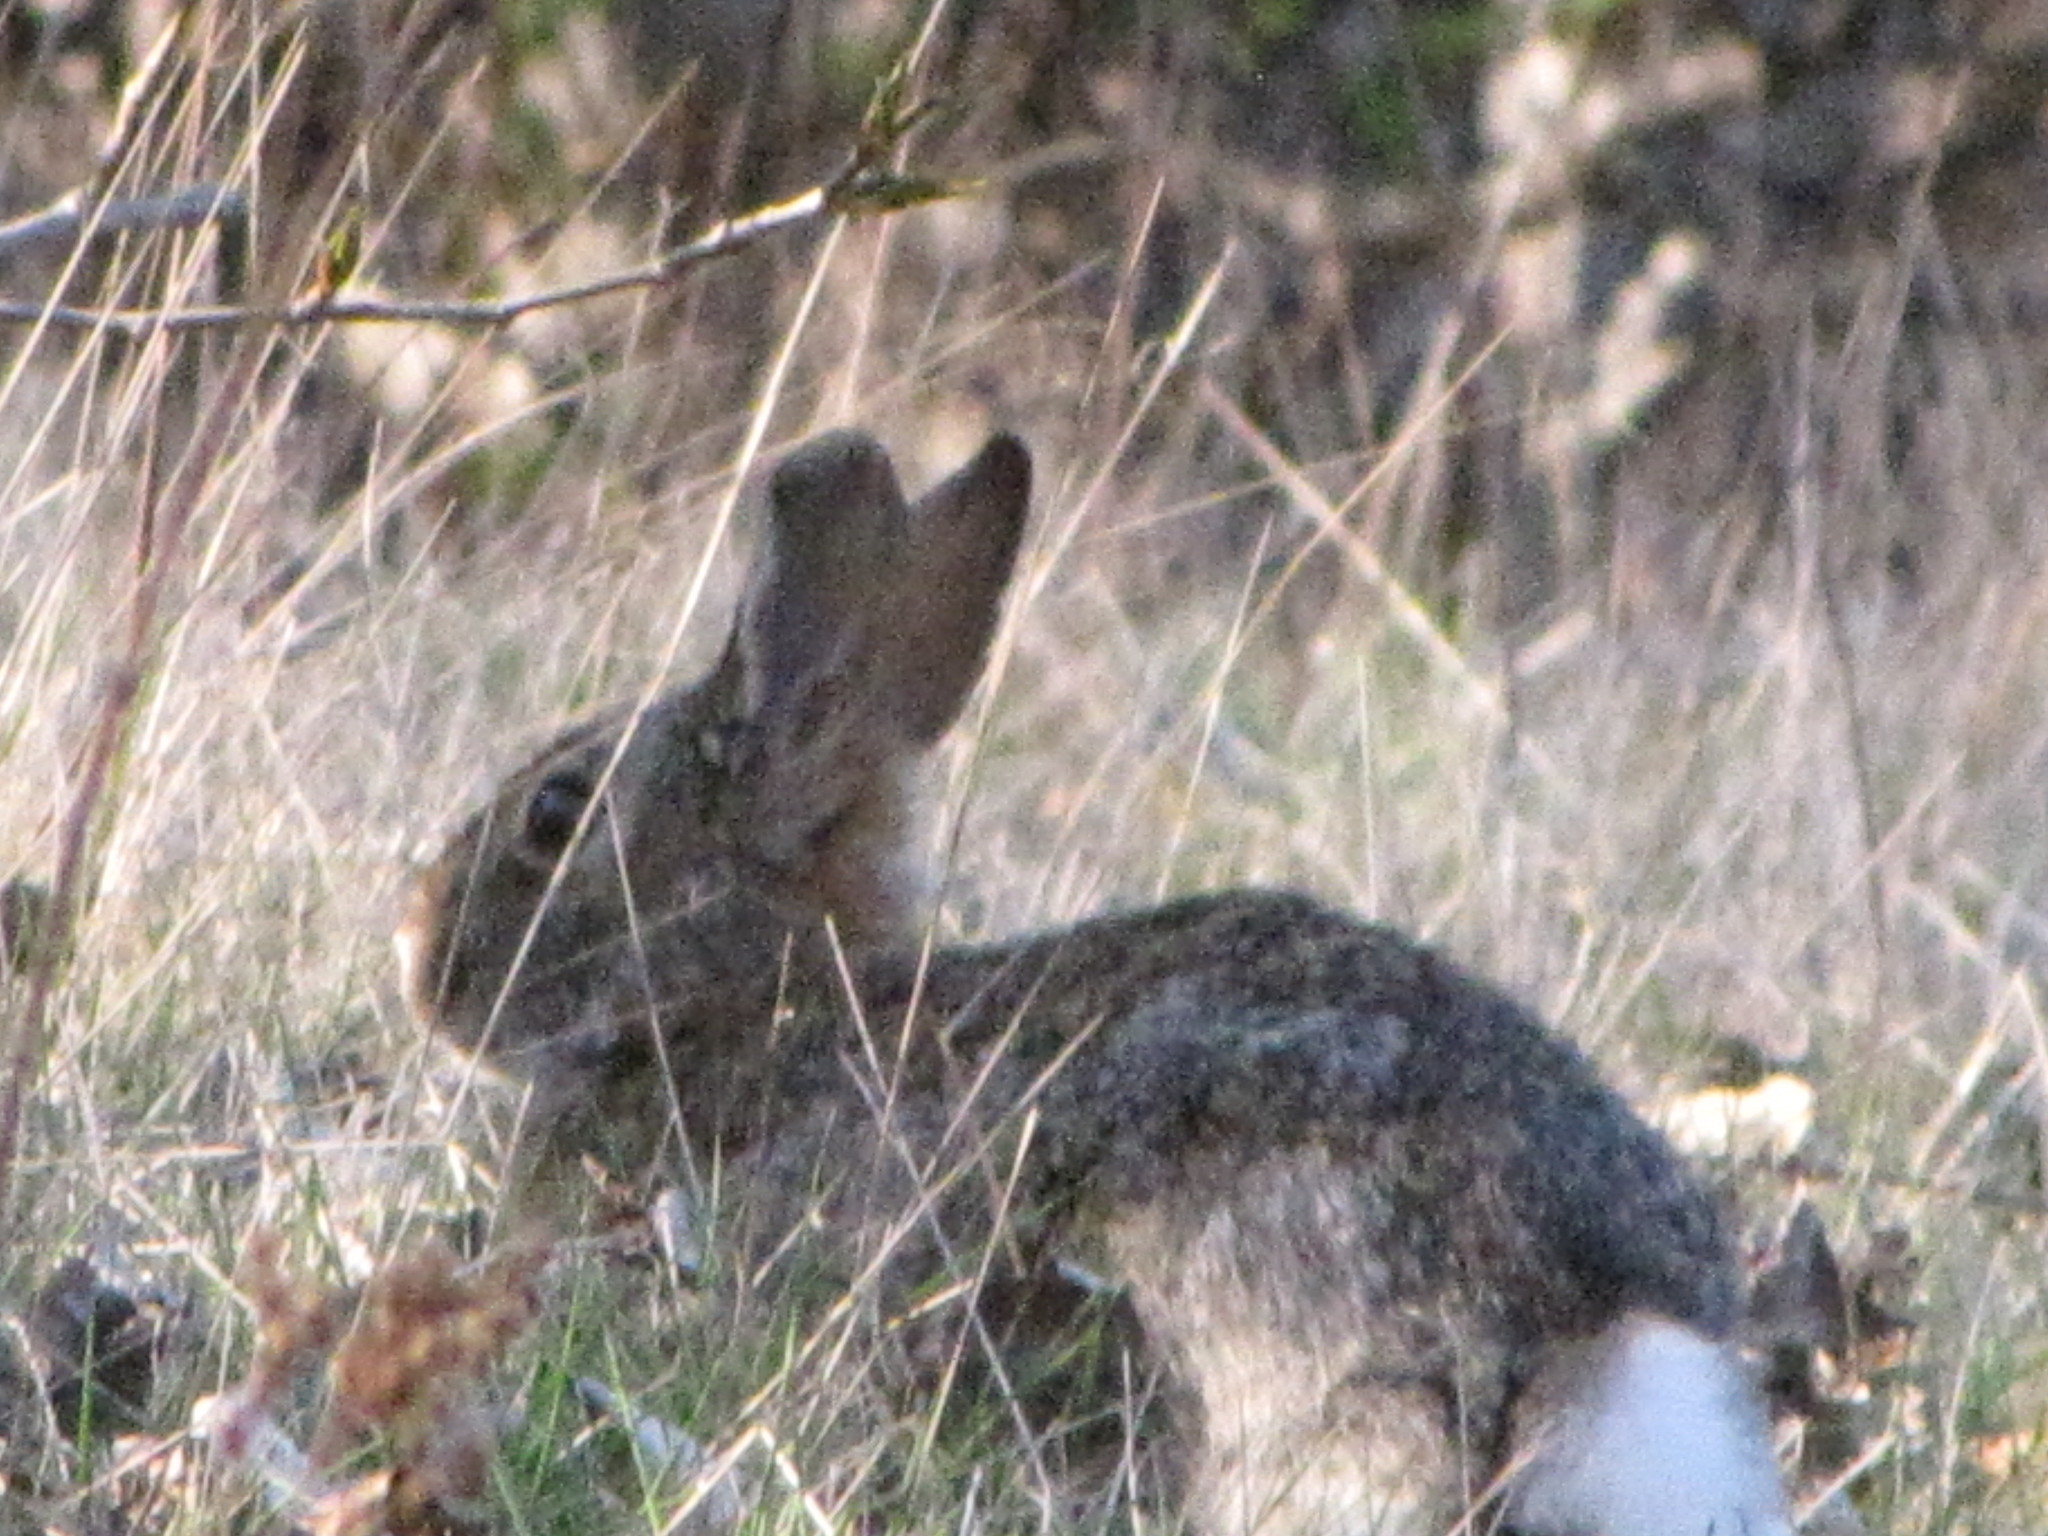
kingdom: Animalia
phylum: Chordata
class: Mammalia
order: Lagomorpha
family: Leporidae
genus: Sylvilagus
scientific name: Sylvilagus floridanus
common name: Eastern cottontail
